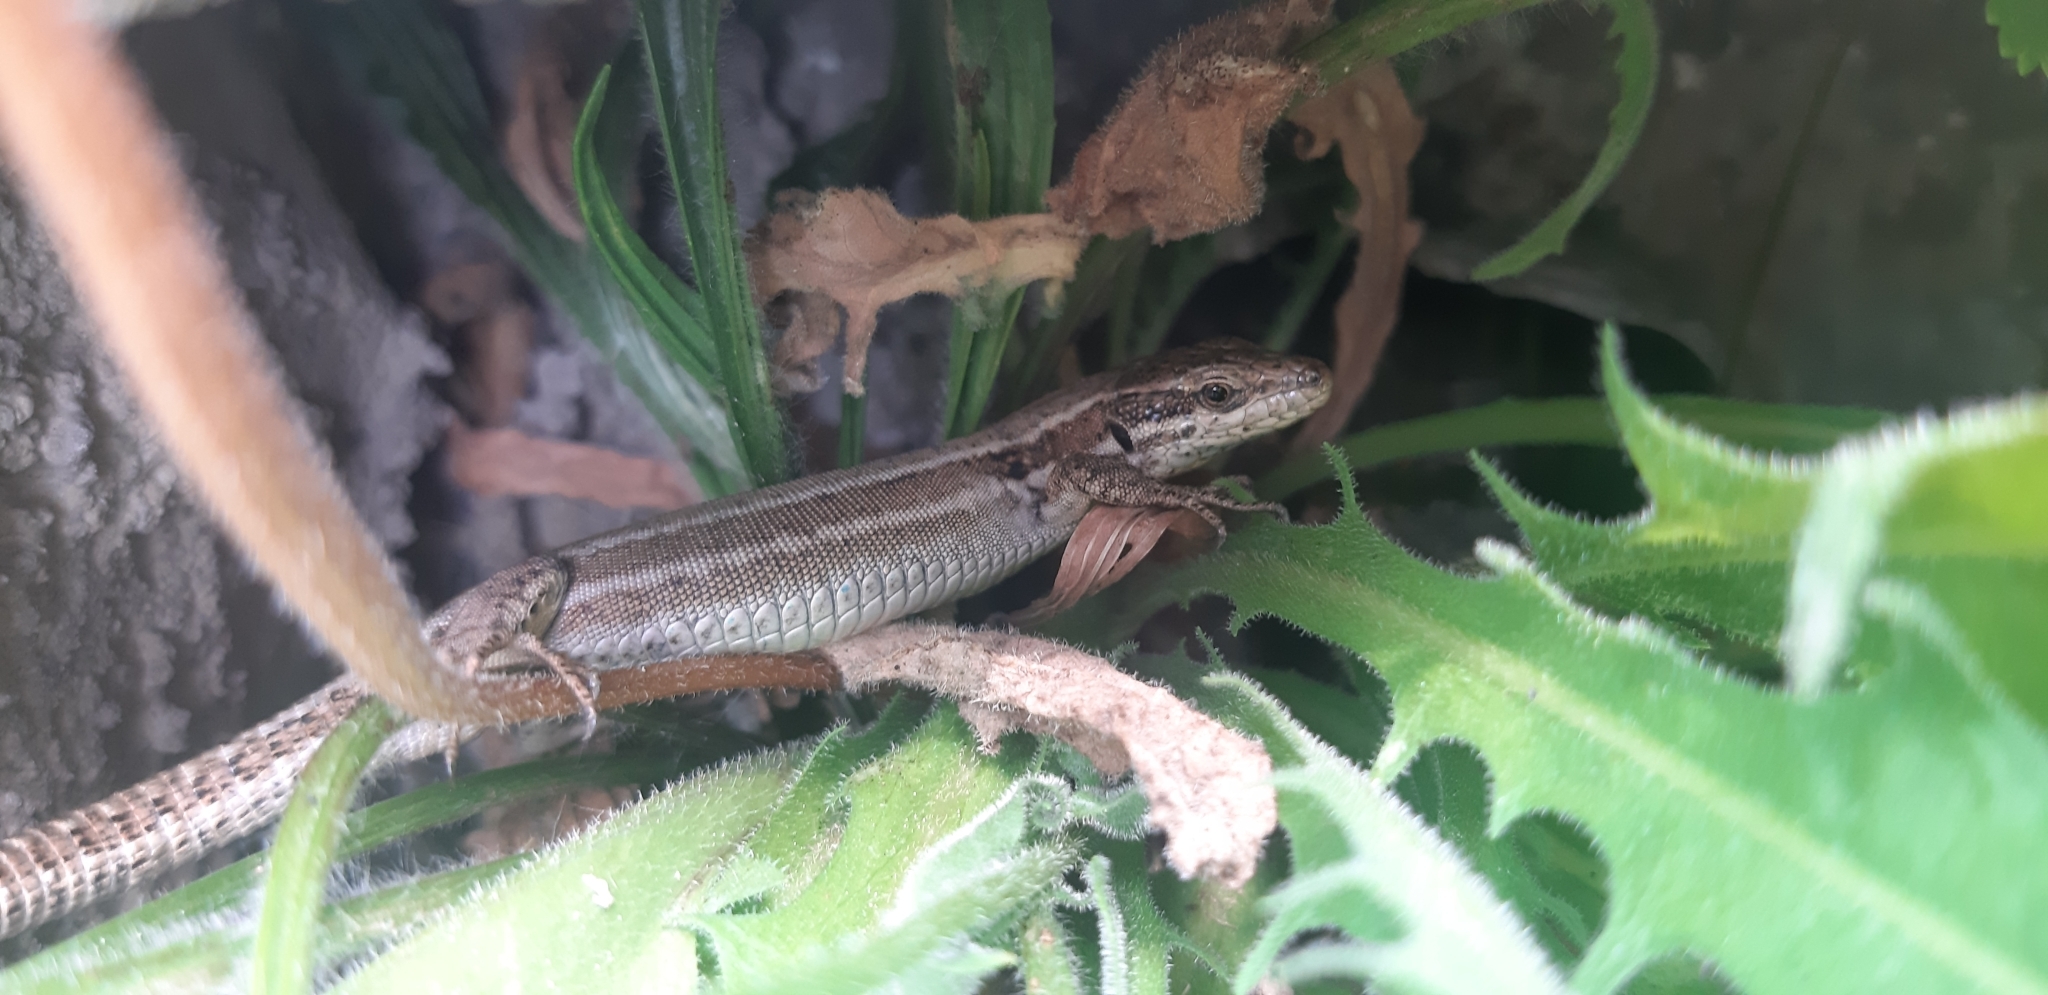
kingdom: Animalia
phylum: Chordata
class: Squamata
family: Lacertidae
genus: Podarcis
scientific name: Podarcis muralis
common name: Common wall lizard
